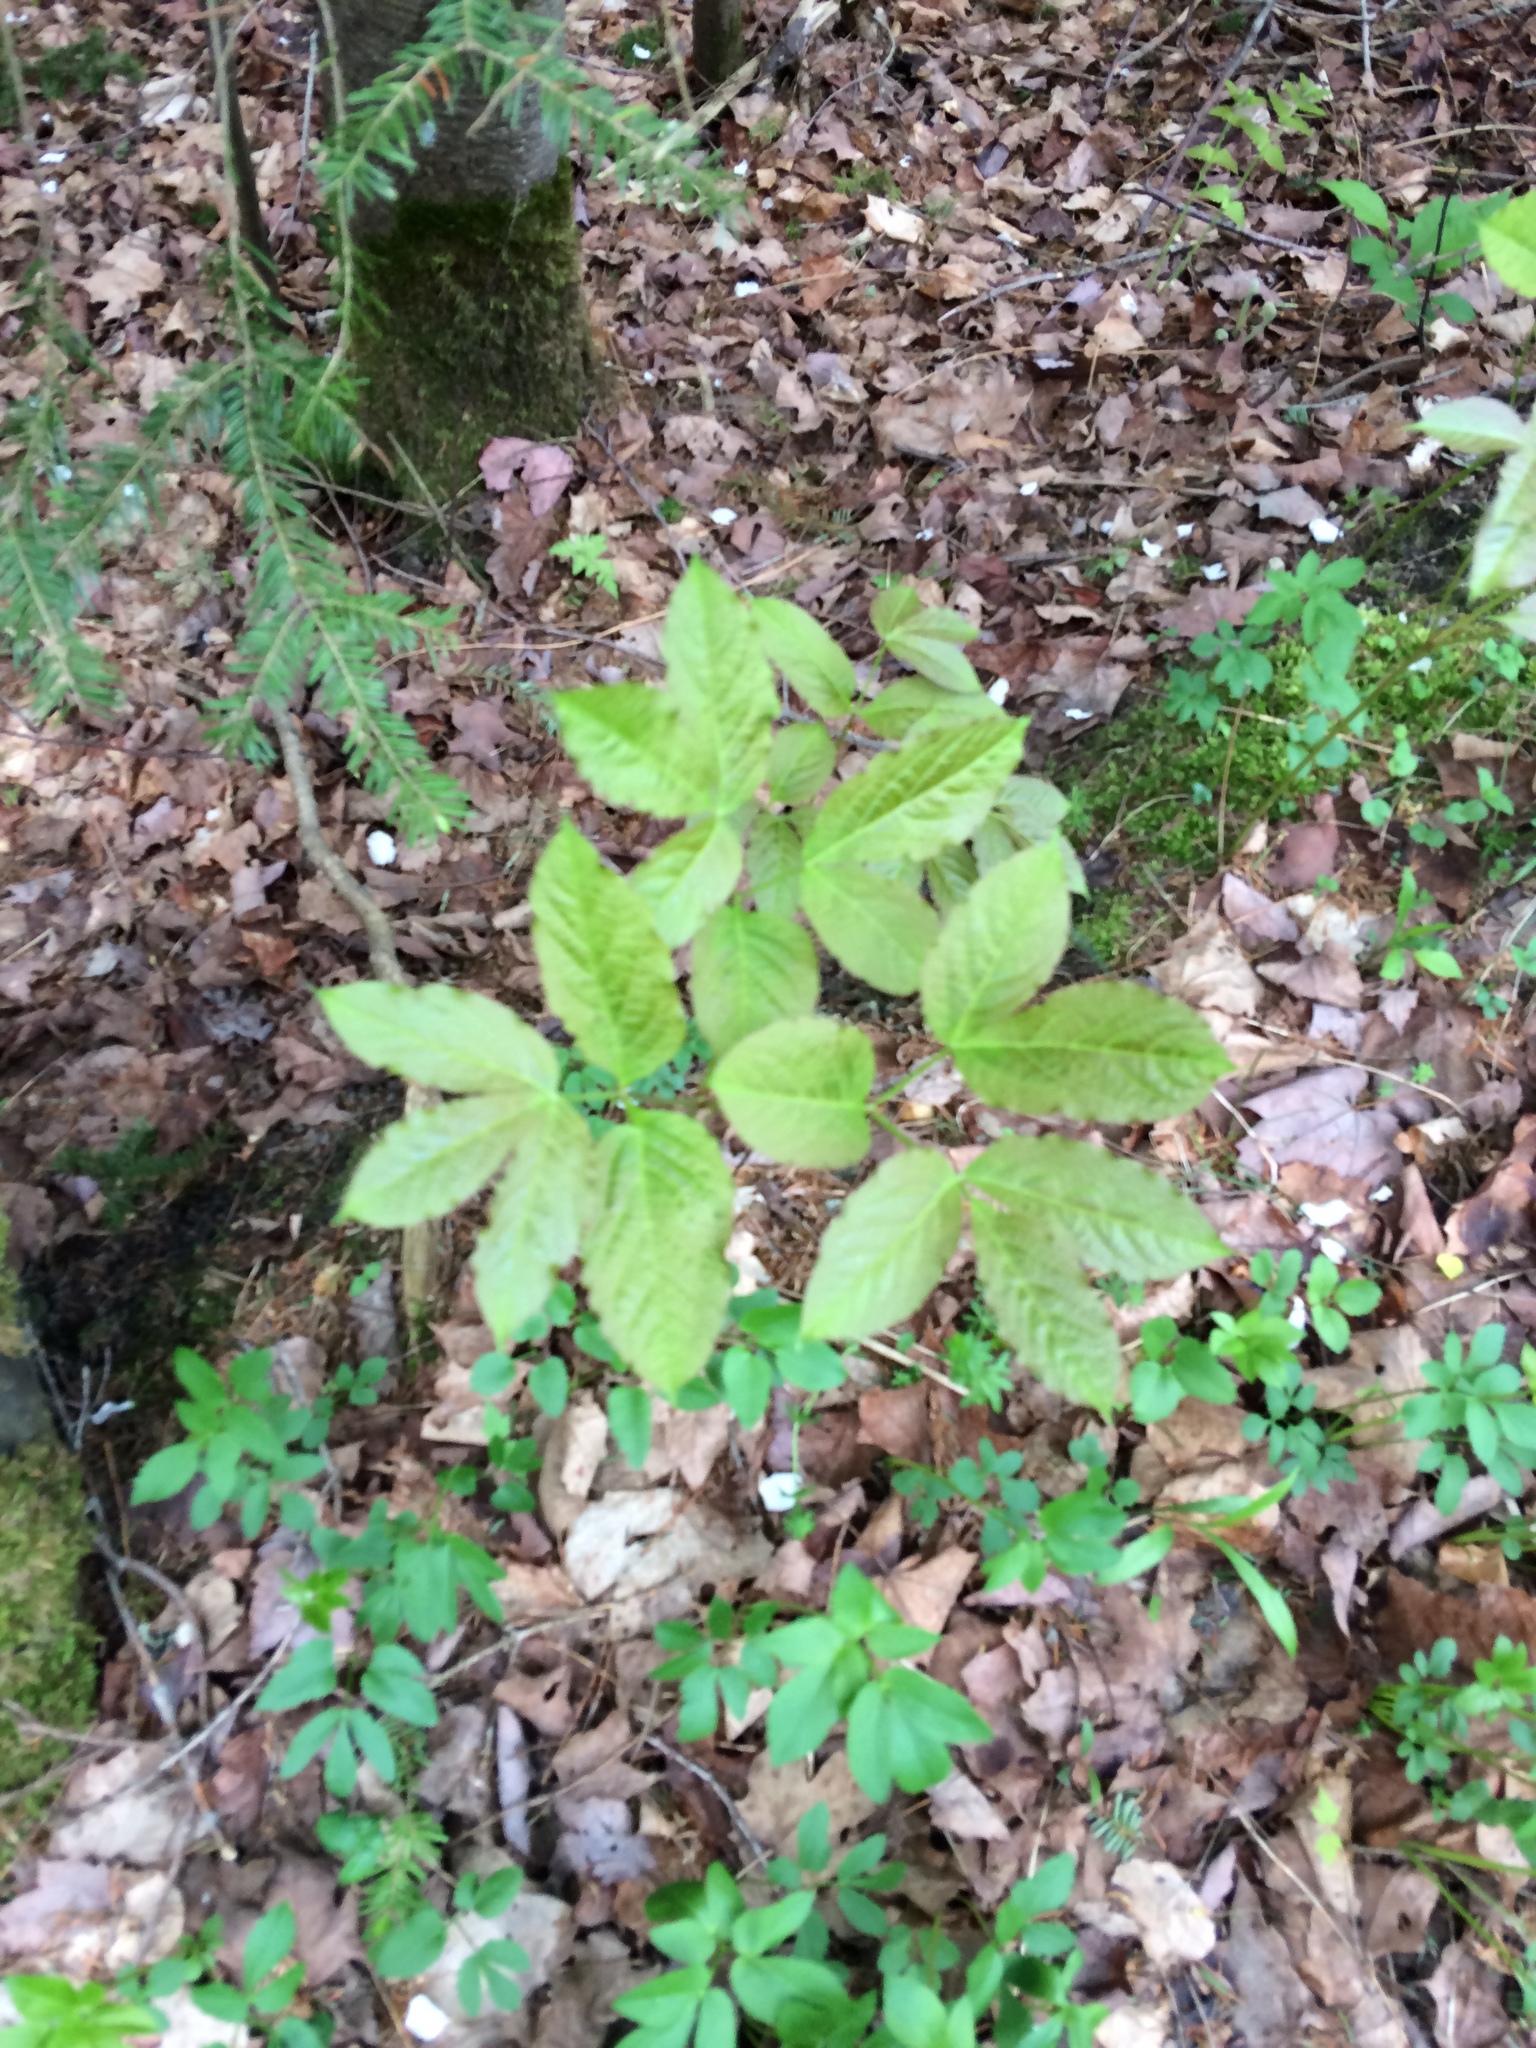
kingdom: Plantae
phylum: Tracheophyta
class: Magnoliopsida
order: Apiales
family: Araliaceae
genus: Aralia
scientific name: Aralia nudicaulis
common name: Wild sarsaparilla
